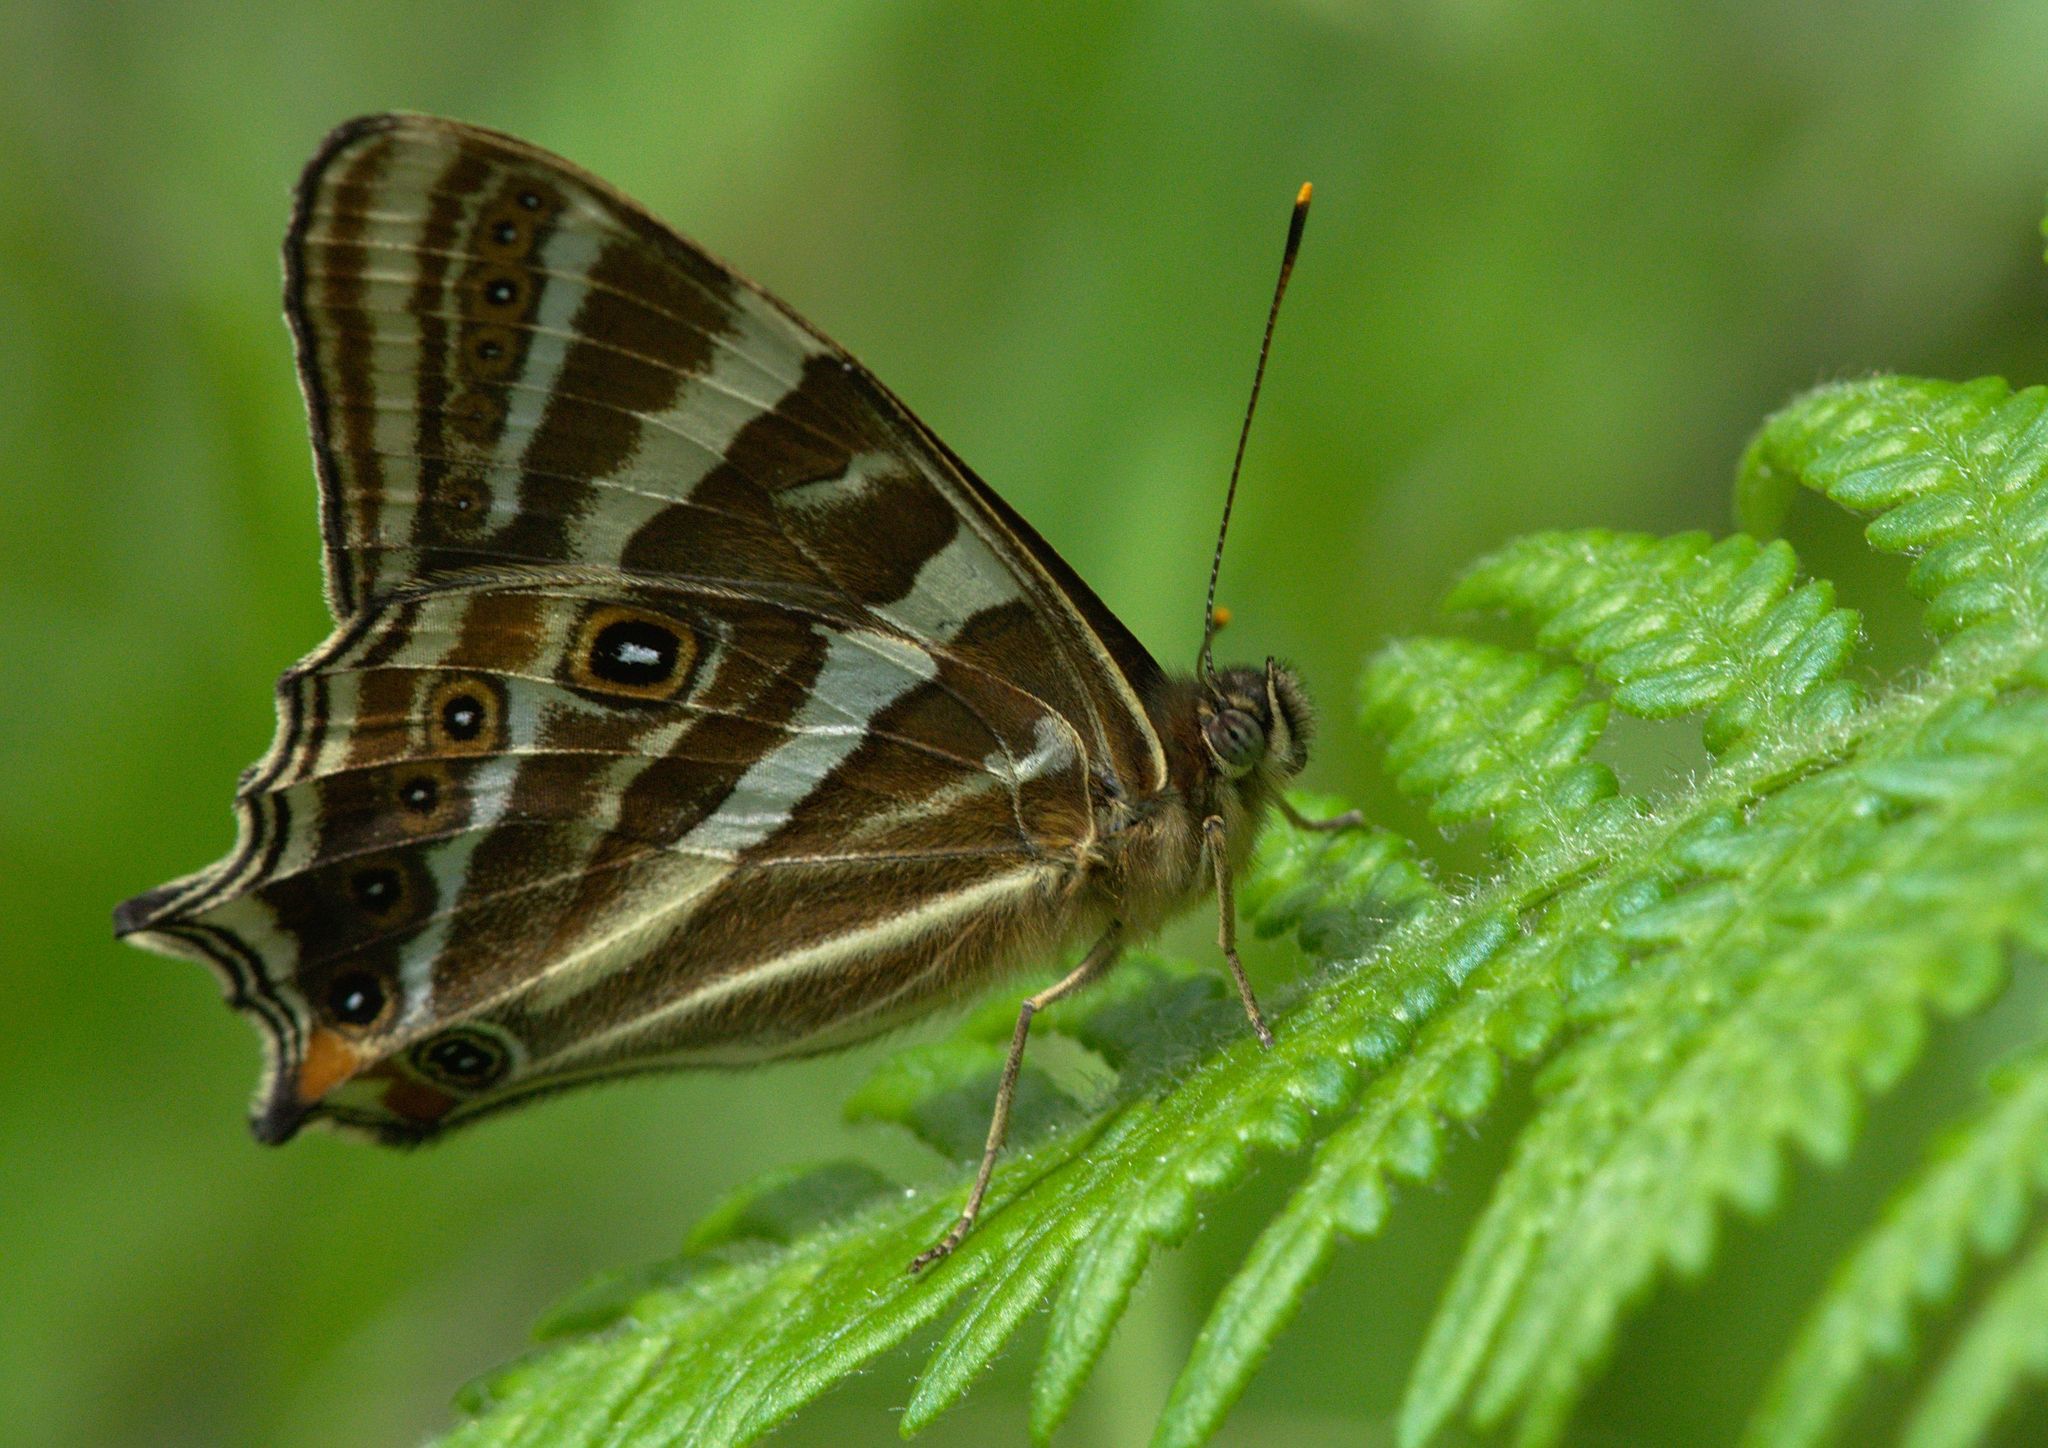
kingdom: Animalia
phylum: Arthropoda
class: Insecta
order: Lepidoptera
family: Nymphalidae
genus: Lethe
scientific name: Lethe baladeva
